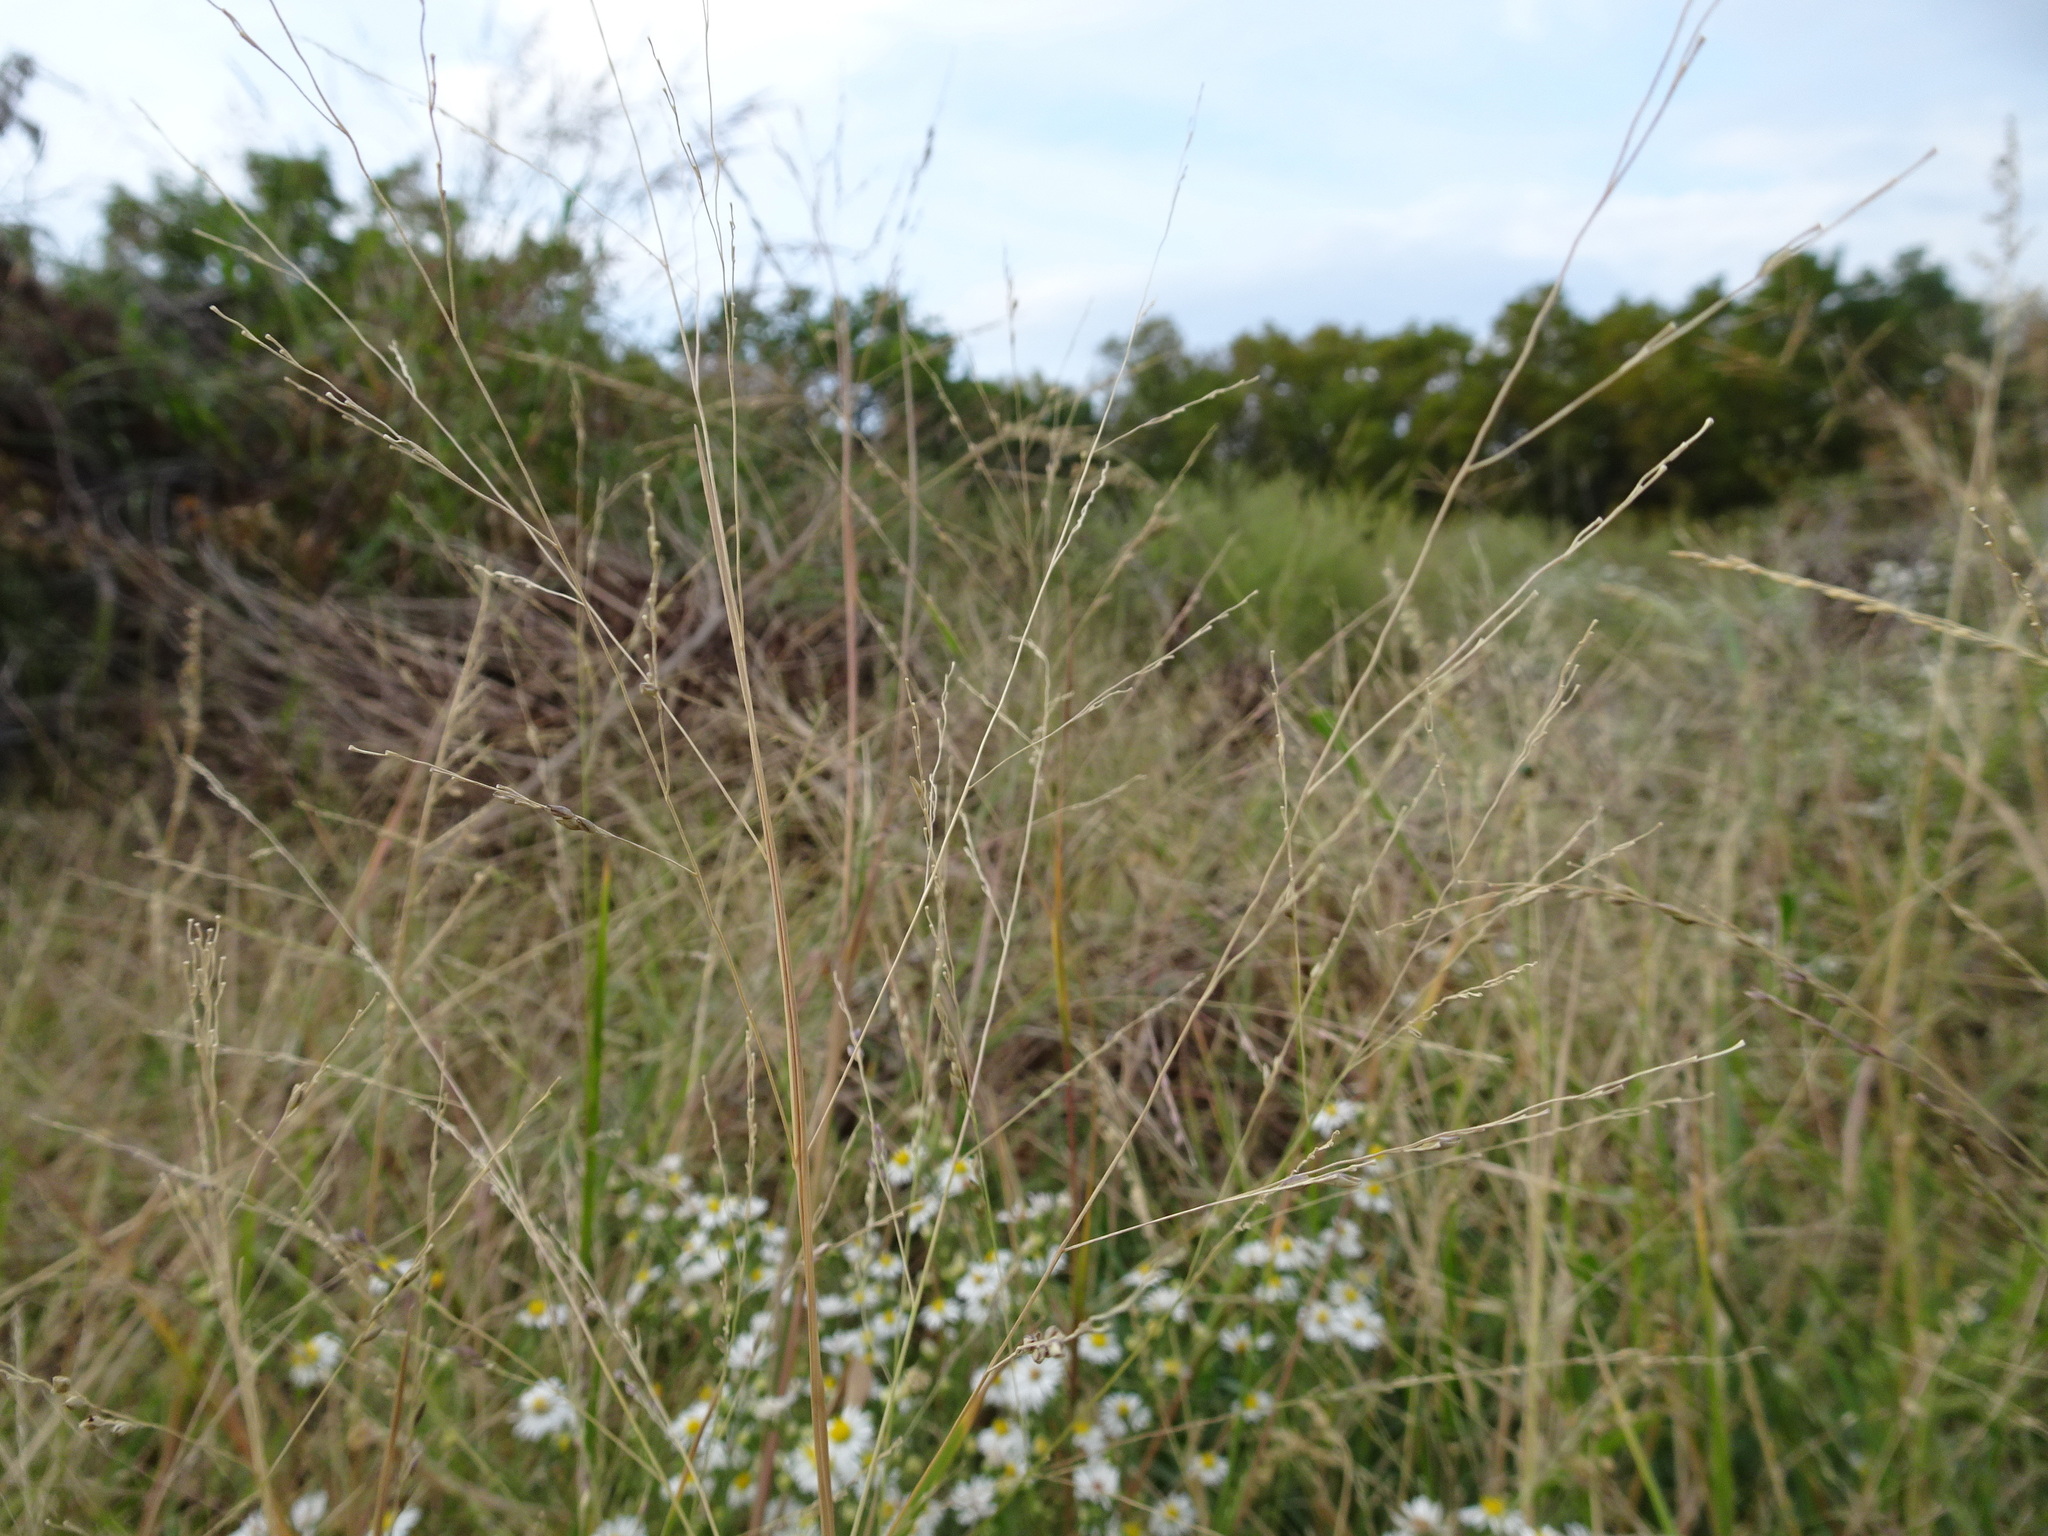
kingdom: Plantae
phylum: Tracheophyta
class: Liliopsida
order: Poales
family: Poaceae
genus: Panicum
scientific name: Panicum dichotomiflorum
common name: Autumn millet
